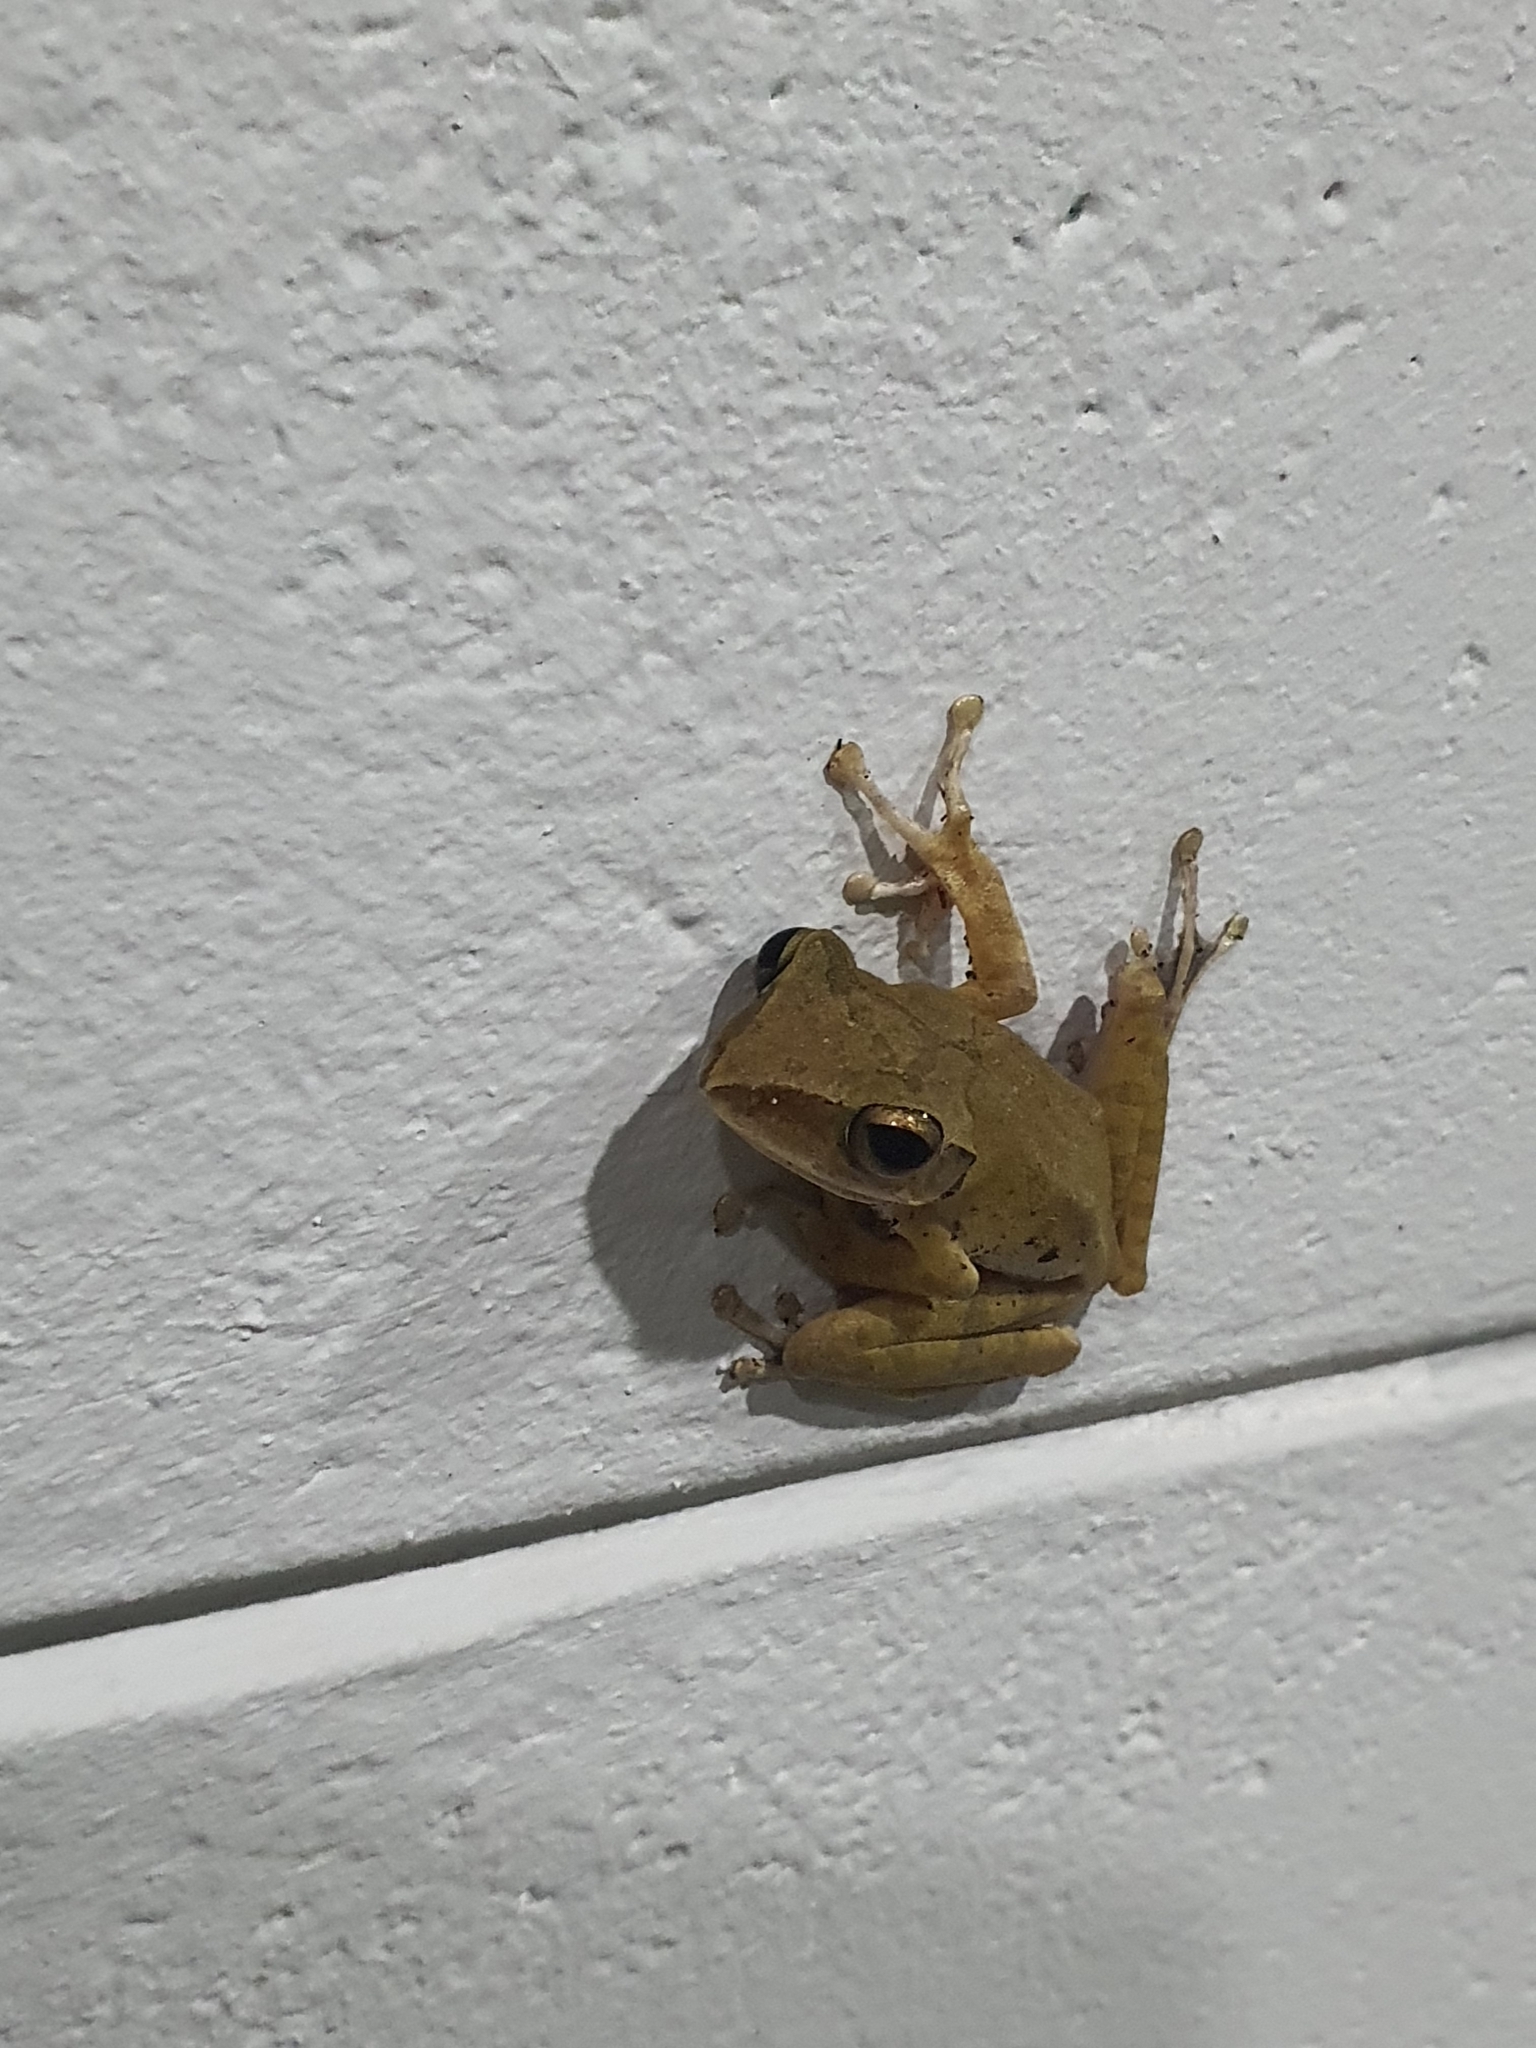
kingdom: Animalia
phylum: Chordata
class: Amphibia
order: Anura
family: Rhacophoridae
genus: Polypedates
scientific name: Polypedates megacephalus
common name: Hong kong whipping frog
